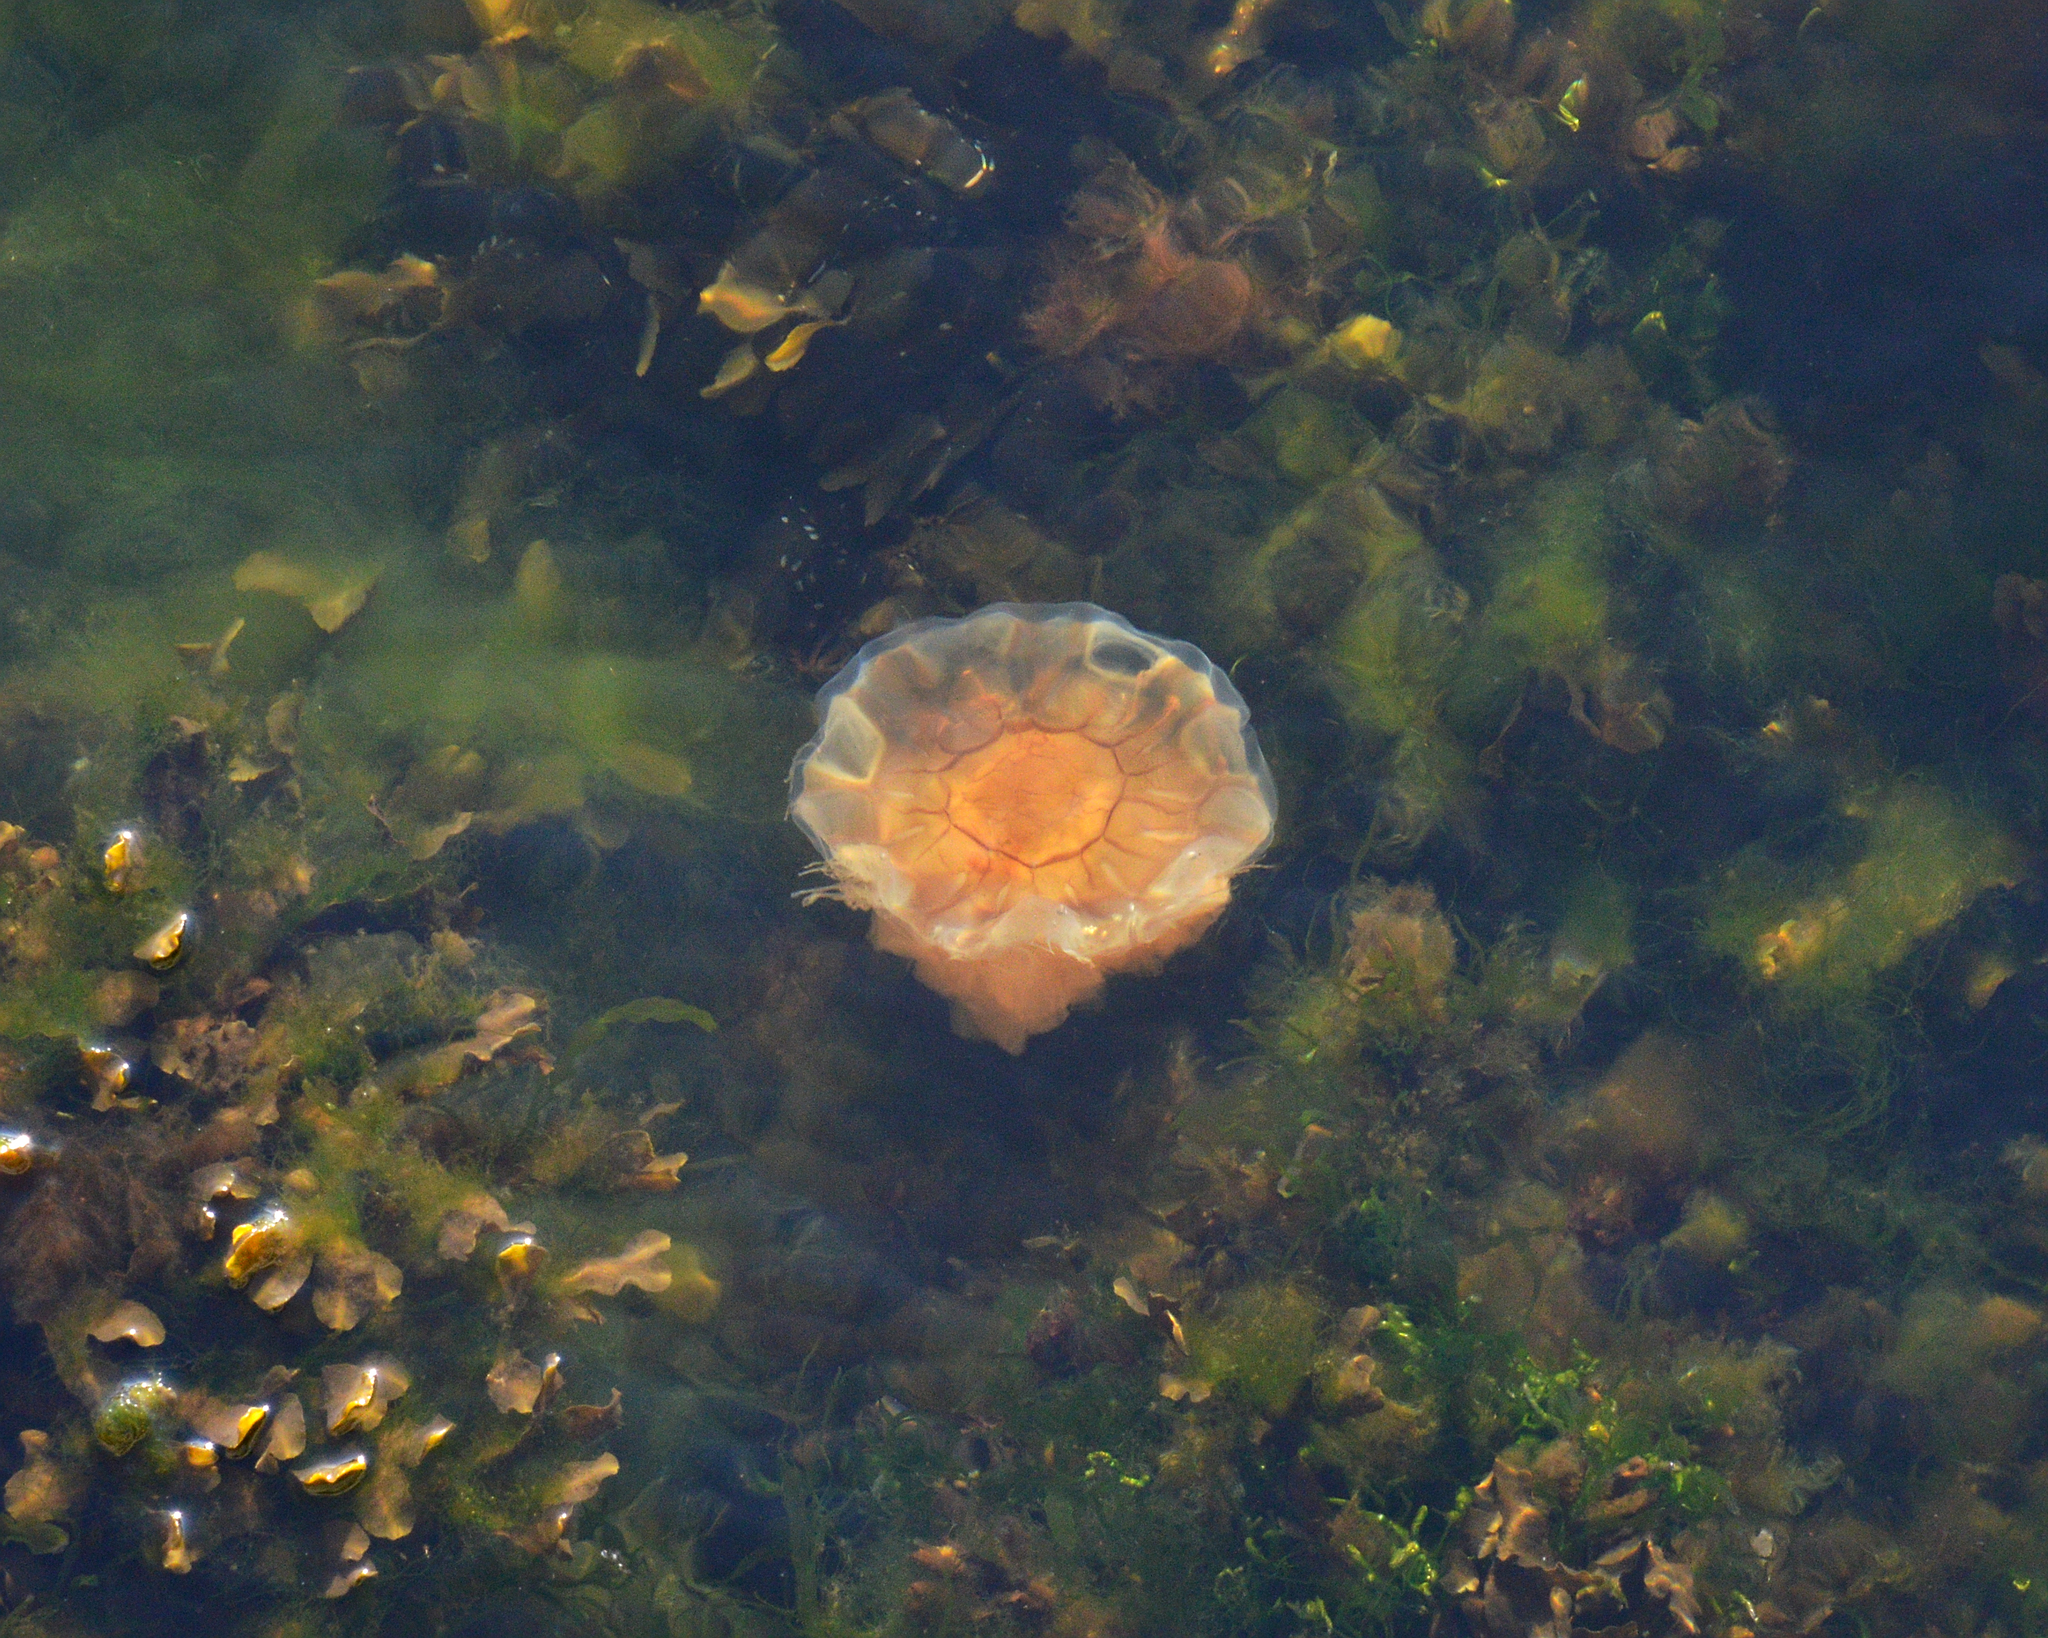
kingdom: Animalia
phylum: Cnidaria
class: Scyphozoa
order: Semaeostomeae
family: Cyaneidae
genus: Cyanea
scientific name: Cyanea capillata
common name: Lion's mane jellyfish
